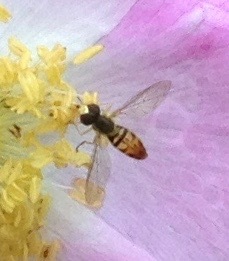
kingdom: Animalia
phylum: Arthropoda
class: Insecta
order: Diptera
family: Syrphidae
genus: Toxomerus
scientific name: Toxomerus marginatus
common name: Syrphid fly
